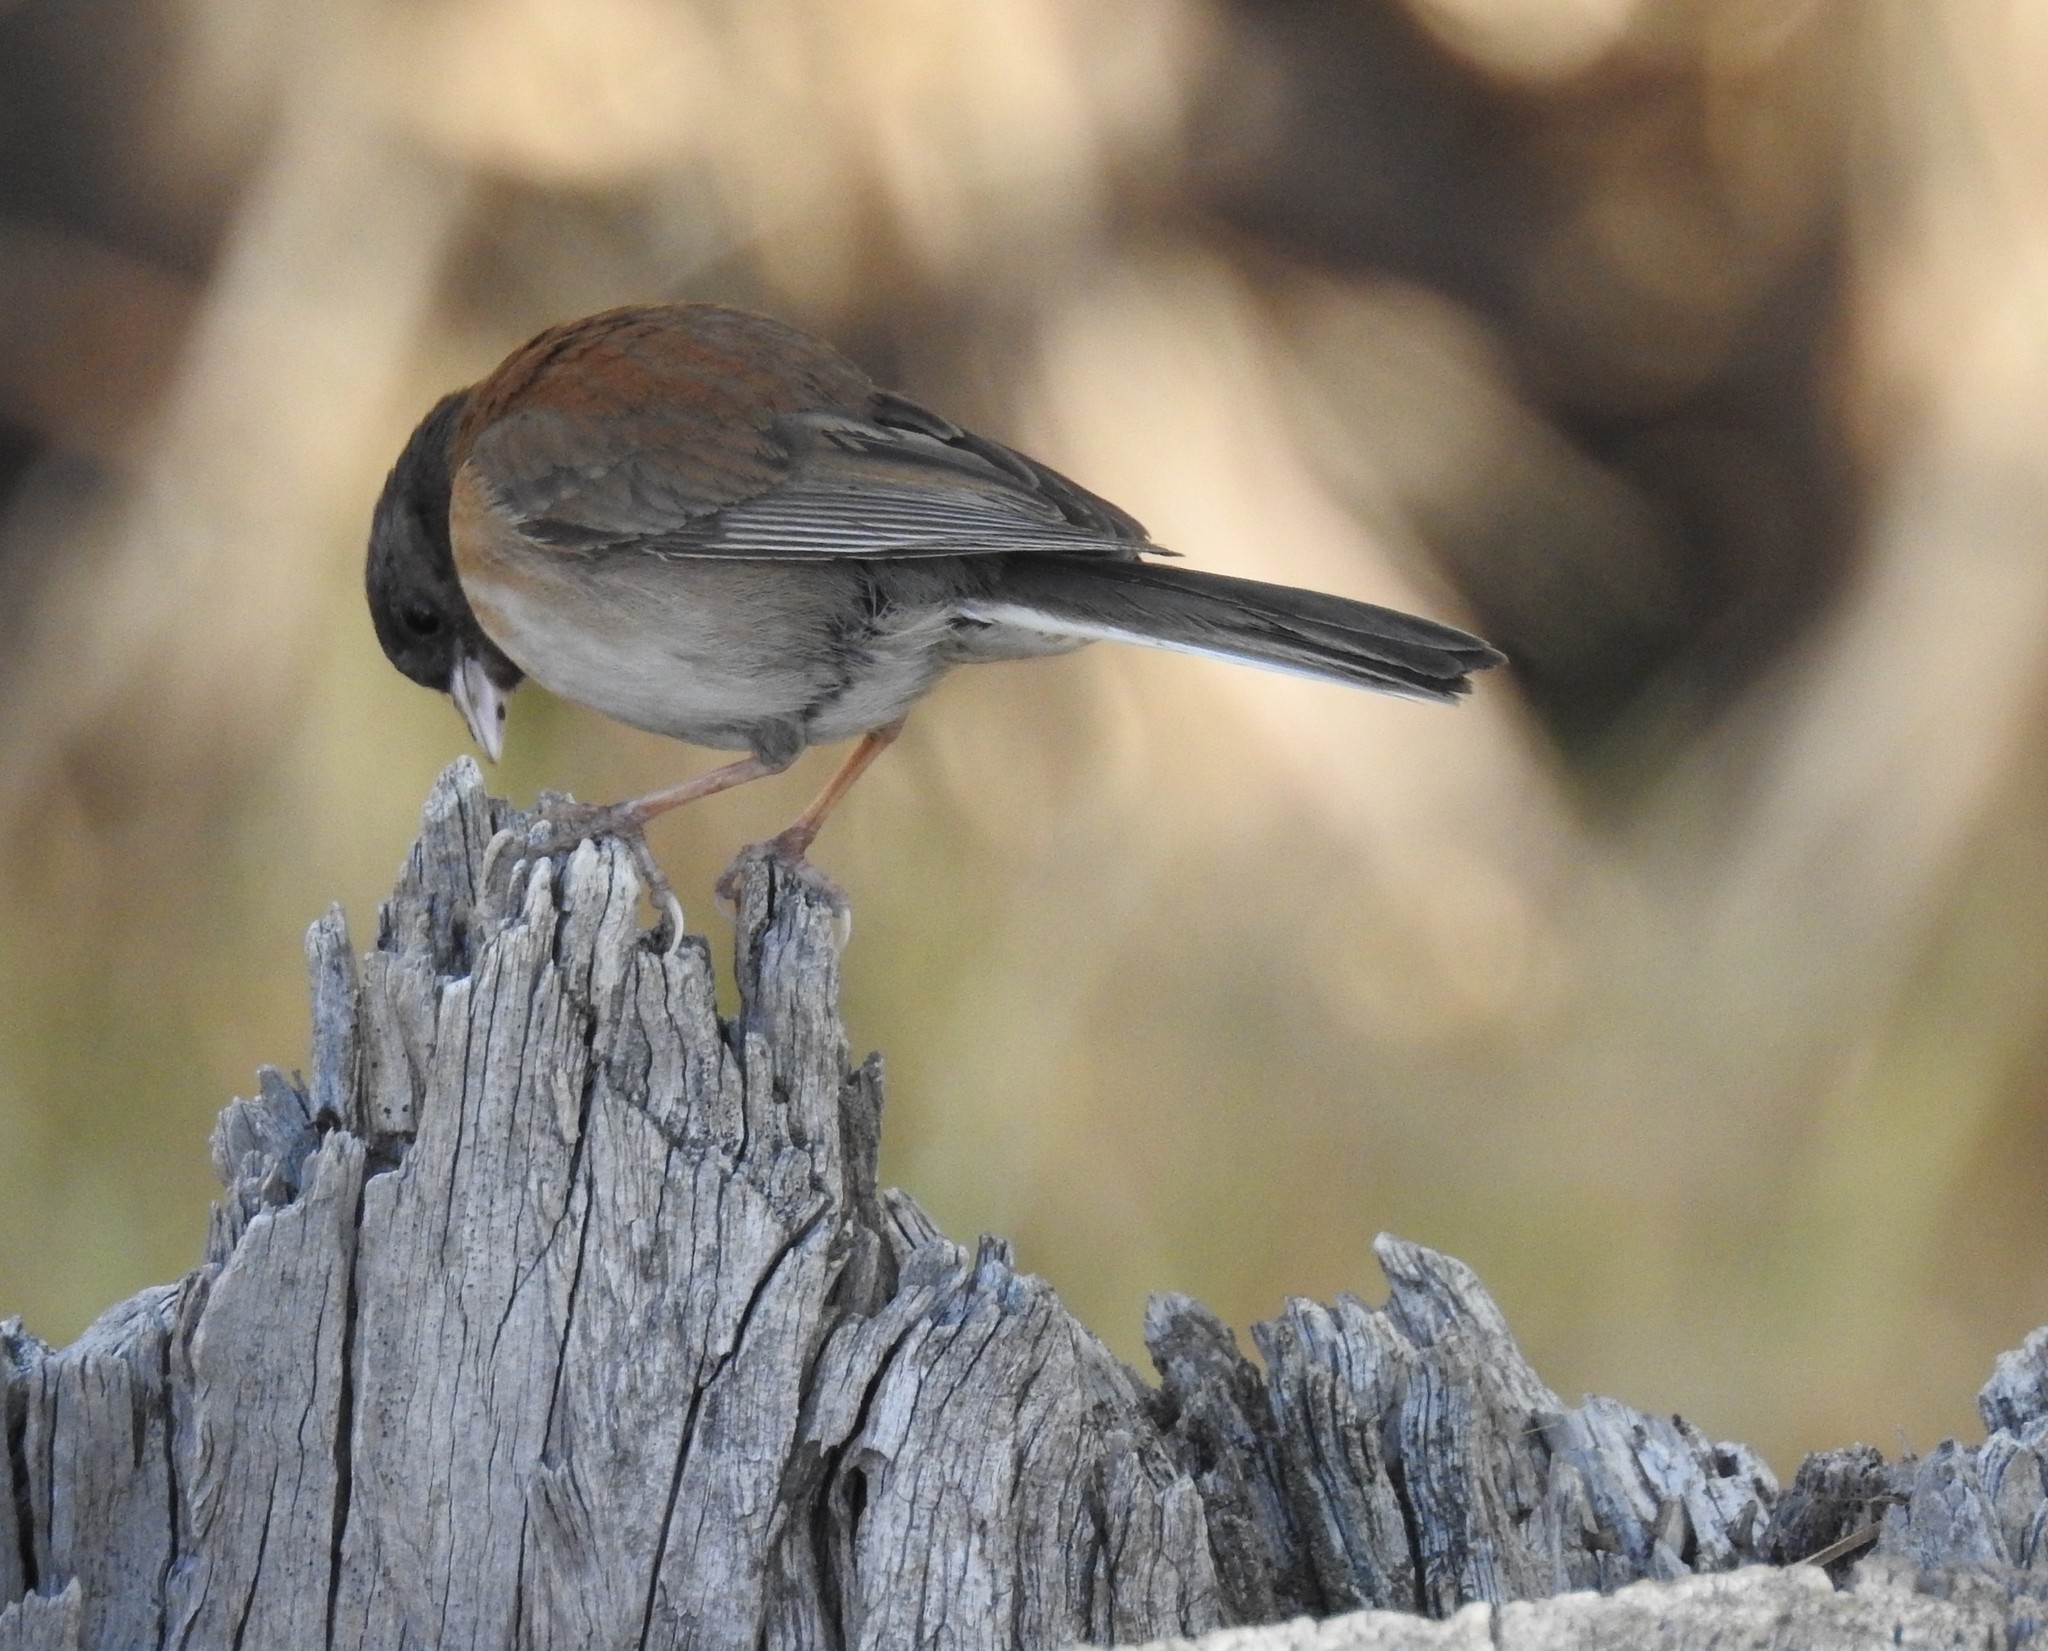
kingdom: Animalia
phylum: Chordata
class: Aves
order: Passeriformes
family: Passerellidae
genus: Junco
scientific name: Junco hyemalis
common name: Dark-eyed junco
